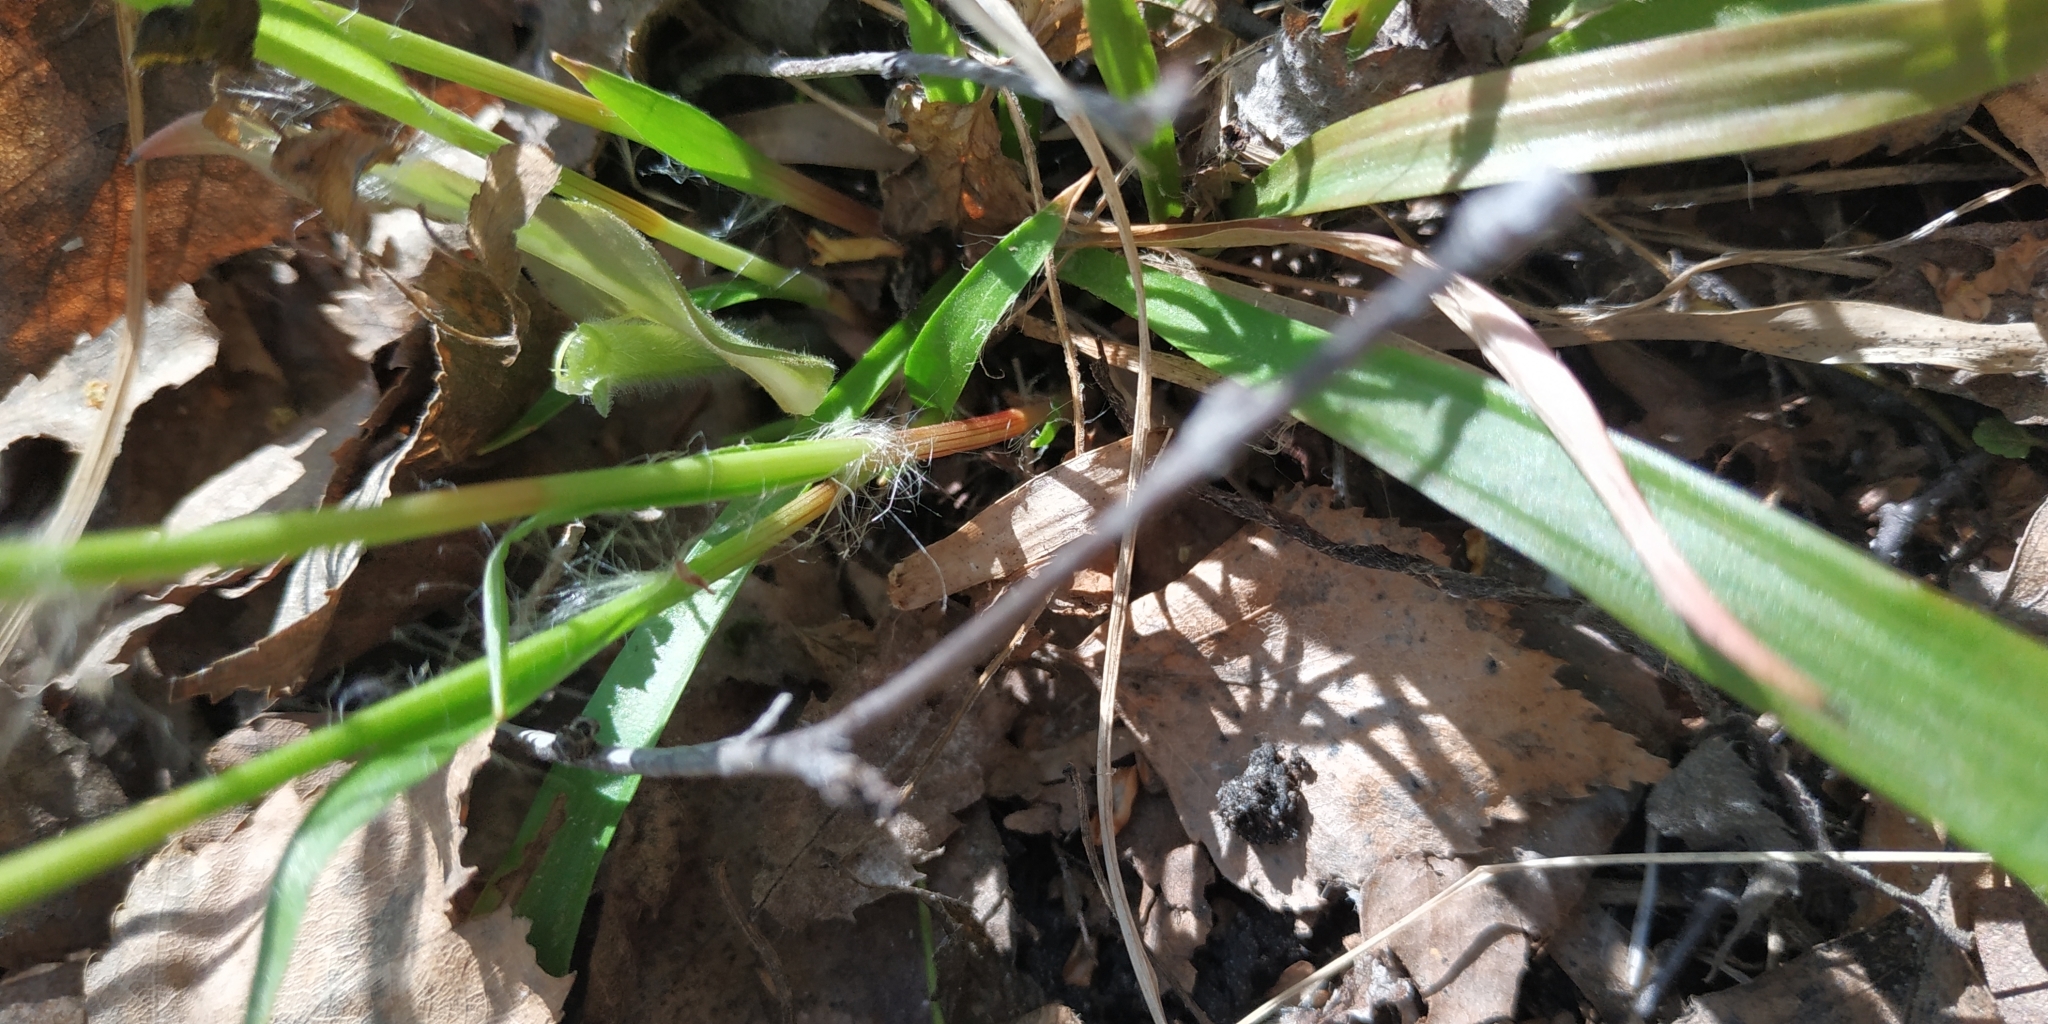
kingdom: Plantae
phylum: Tracheophyta
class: Liliopsida
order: Poales
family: Juncaceae
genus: Luzula
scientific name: Luzula pilosa
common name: Hairy wood-rush
